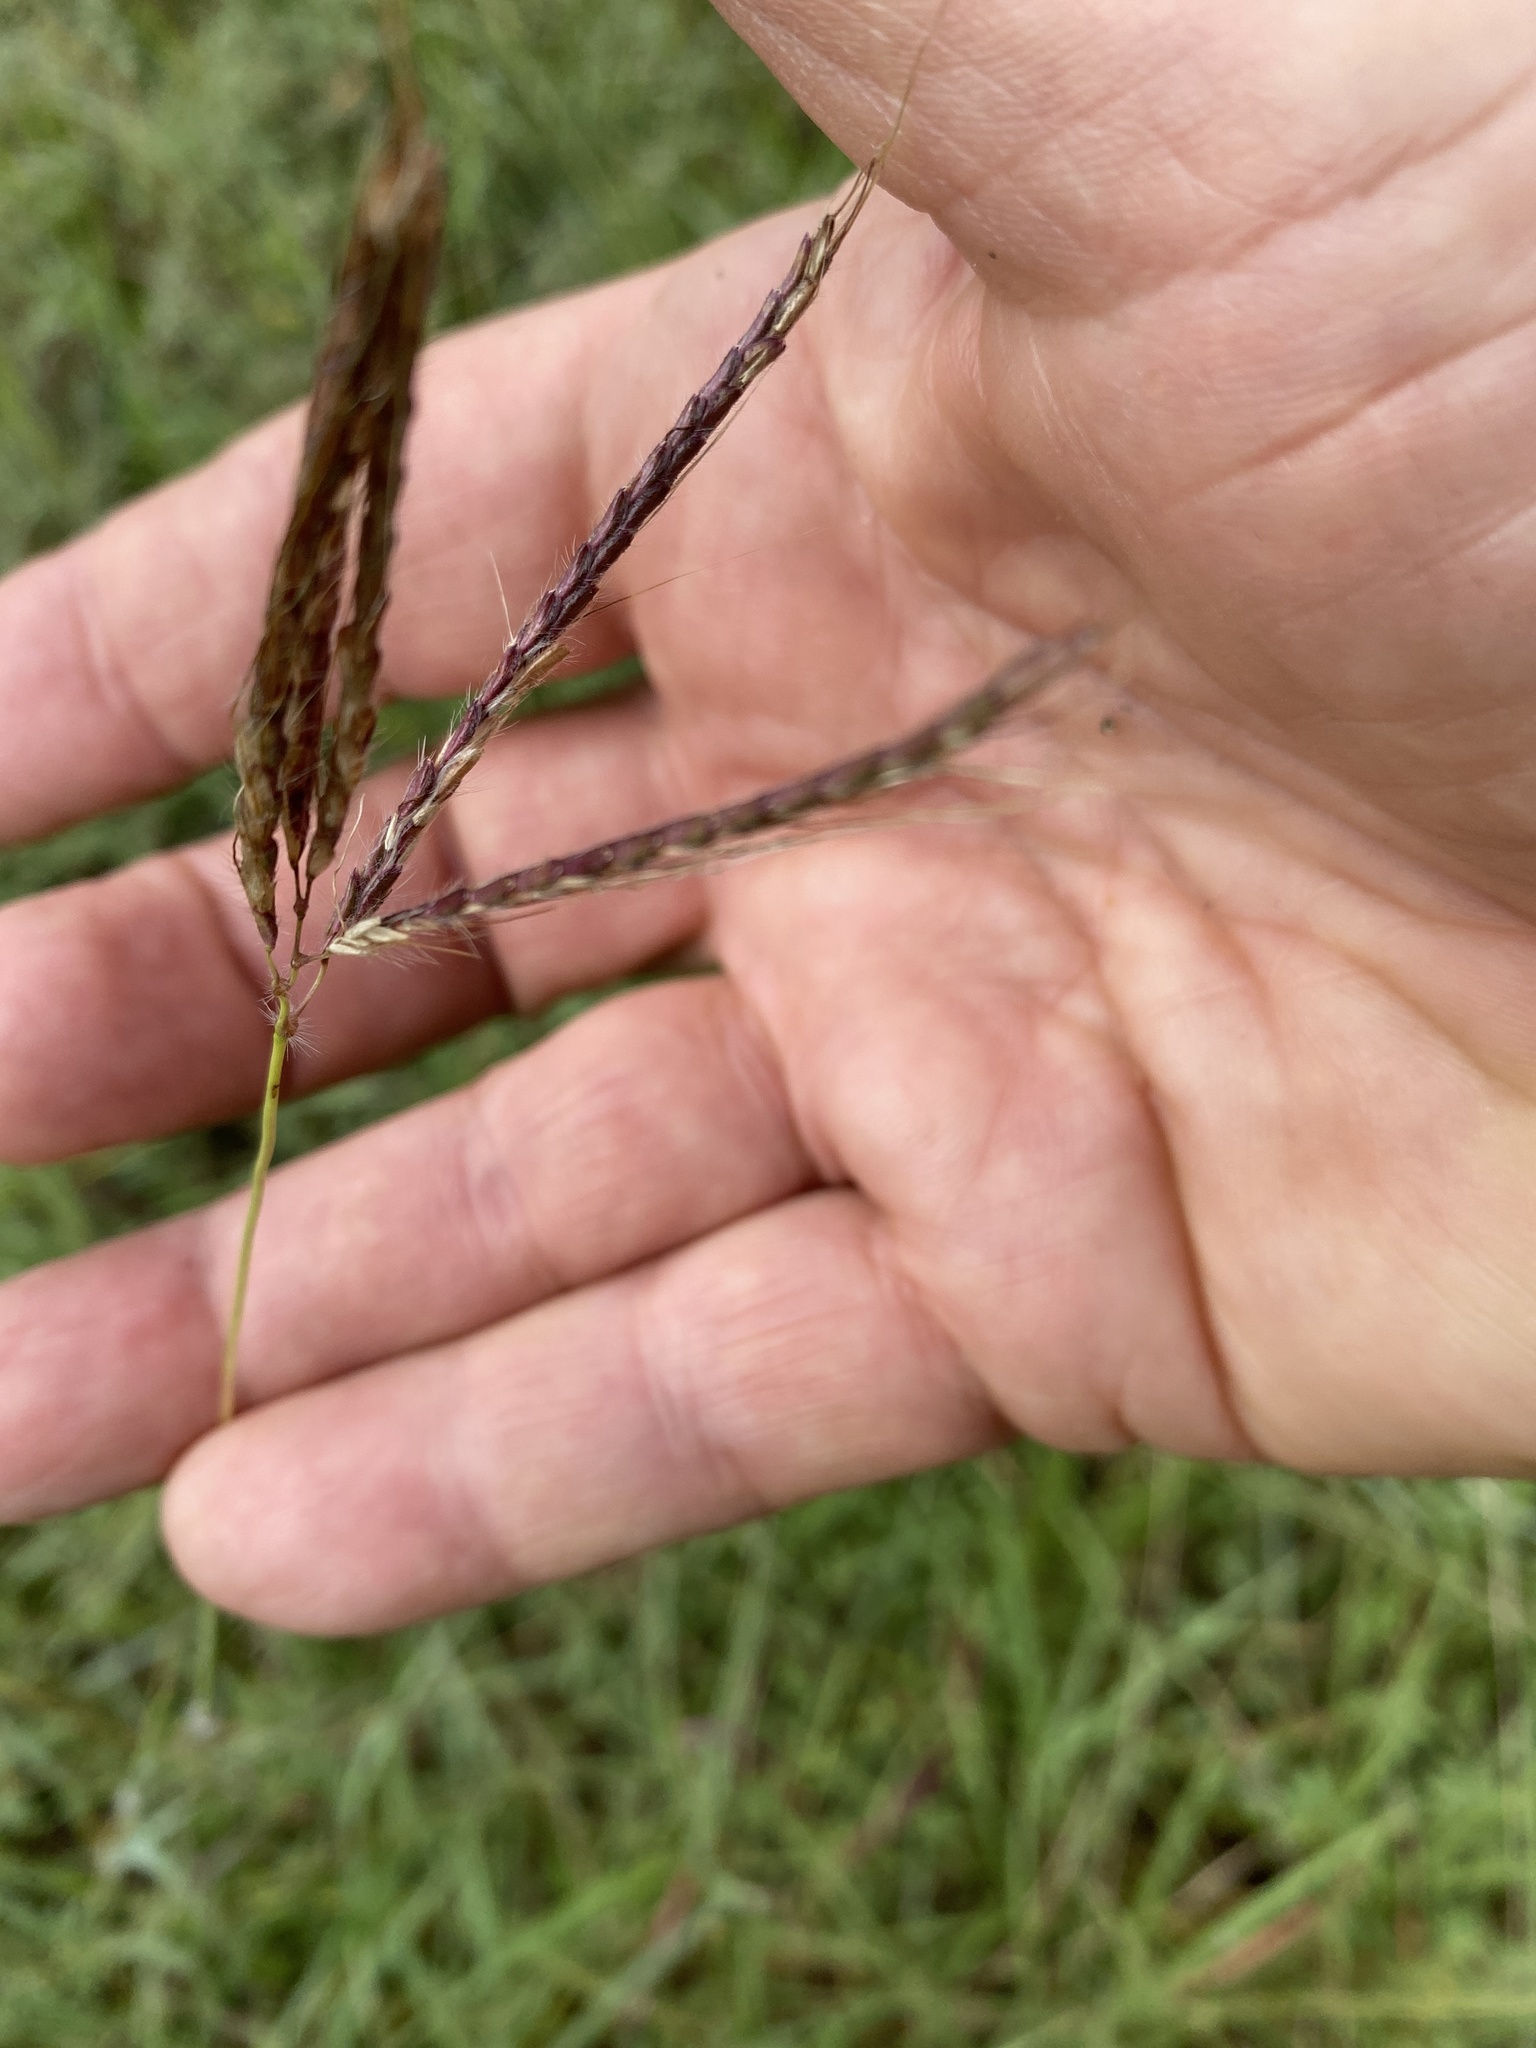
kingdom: Plantae
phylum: Tracheophyta
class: Liliopsida
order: Poales
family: Poaceae
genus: Dichanthium
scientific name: Dichanthium annulatum
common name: Kleberg's bluestem
